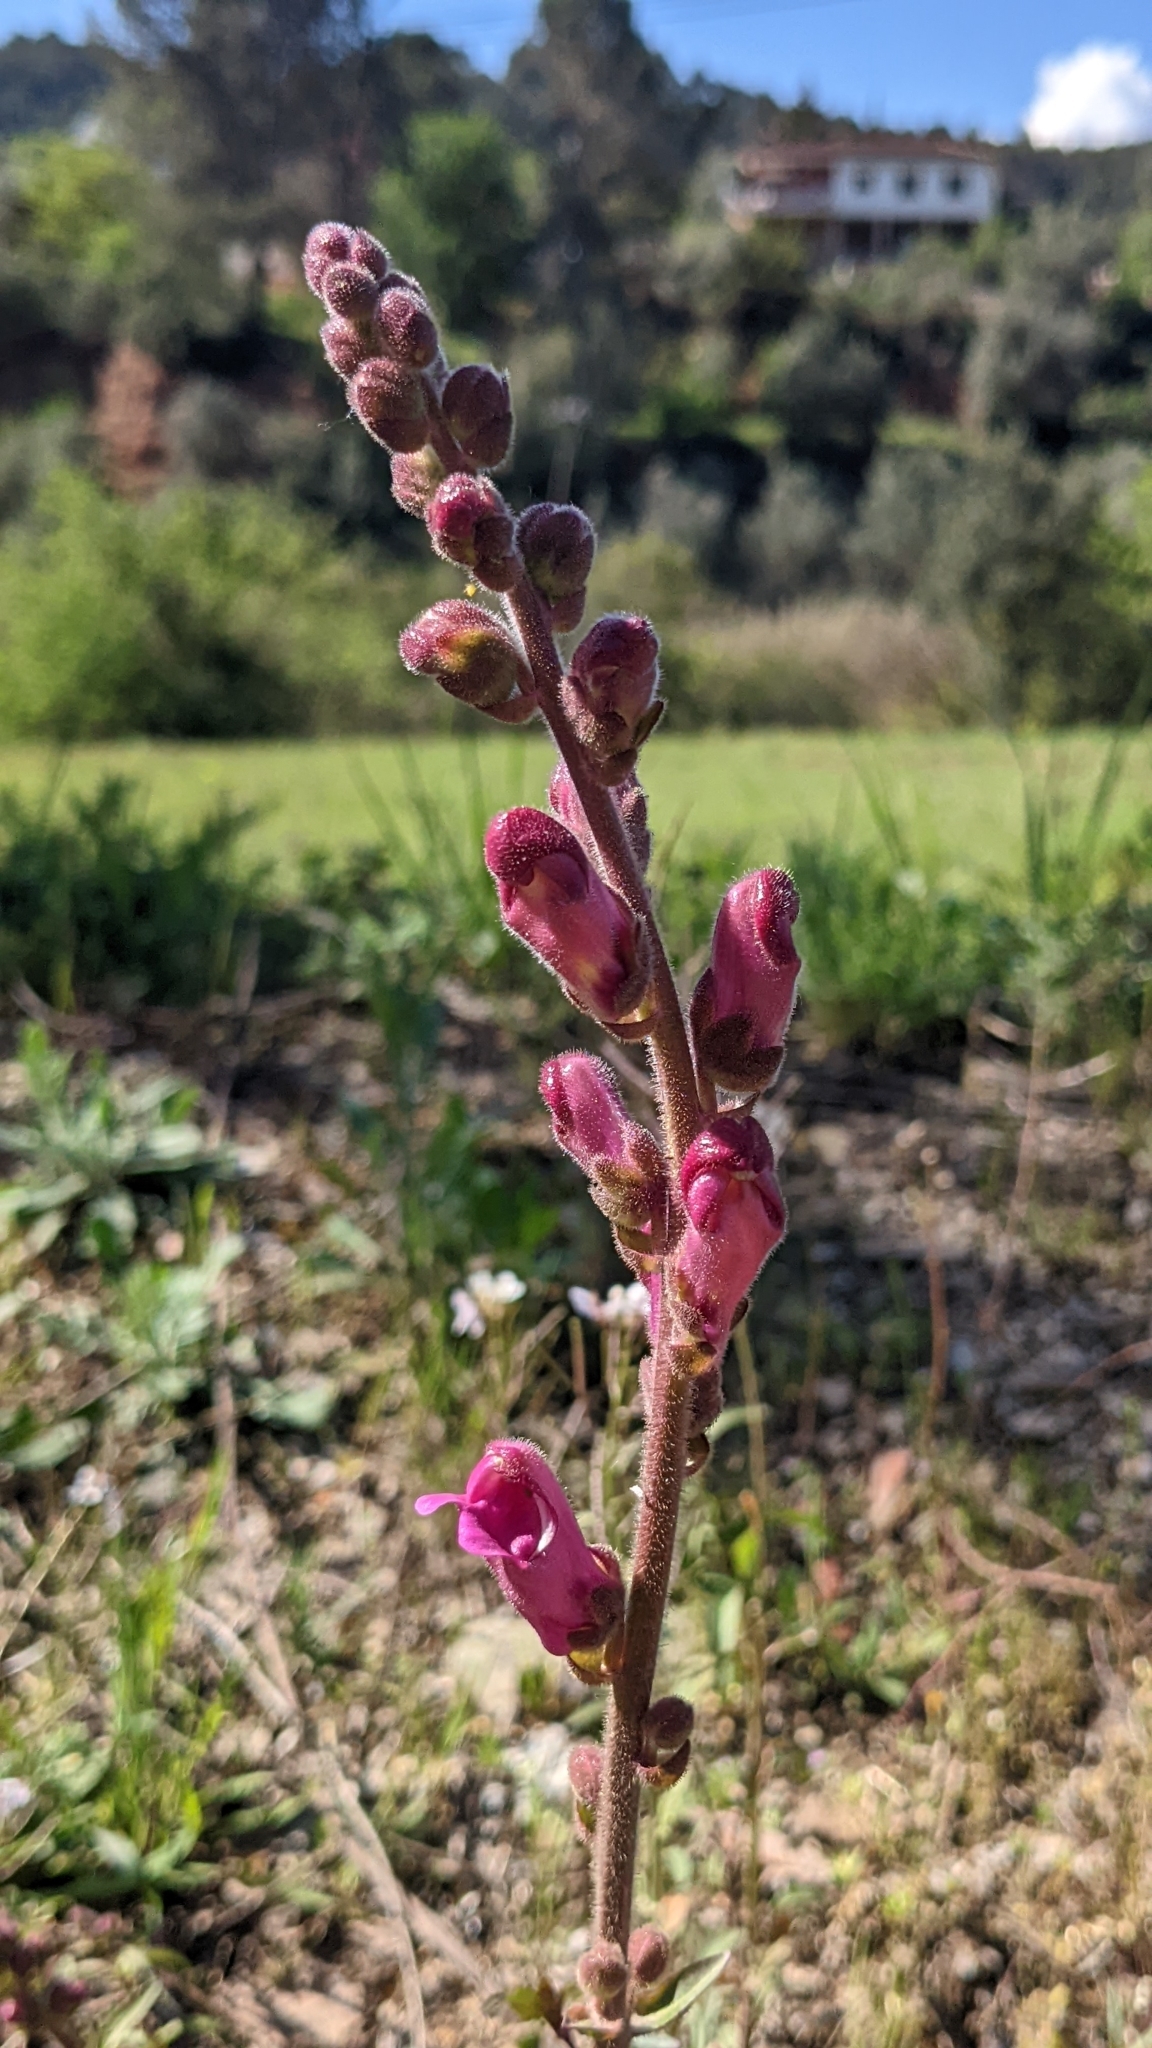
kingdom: Plantae
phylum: Tracheophyta
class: Magnoliopsida
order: Lamiales
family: Plantaginaceae
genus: Antirrhinum
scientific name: Antirrhinum majus
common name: Snapdragon
